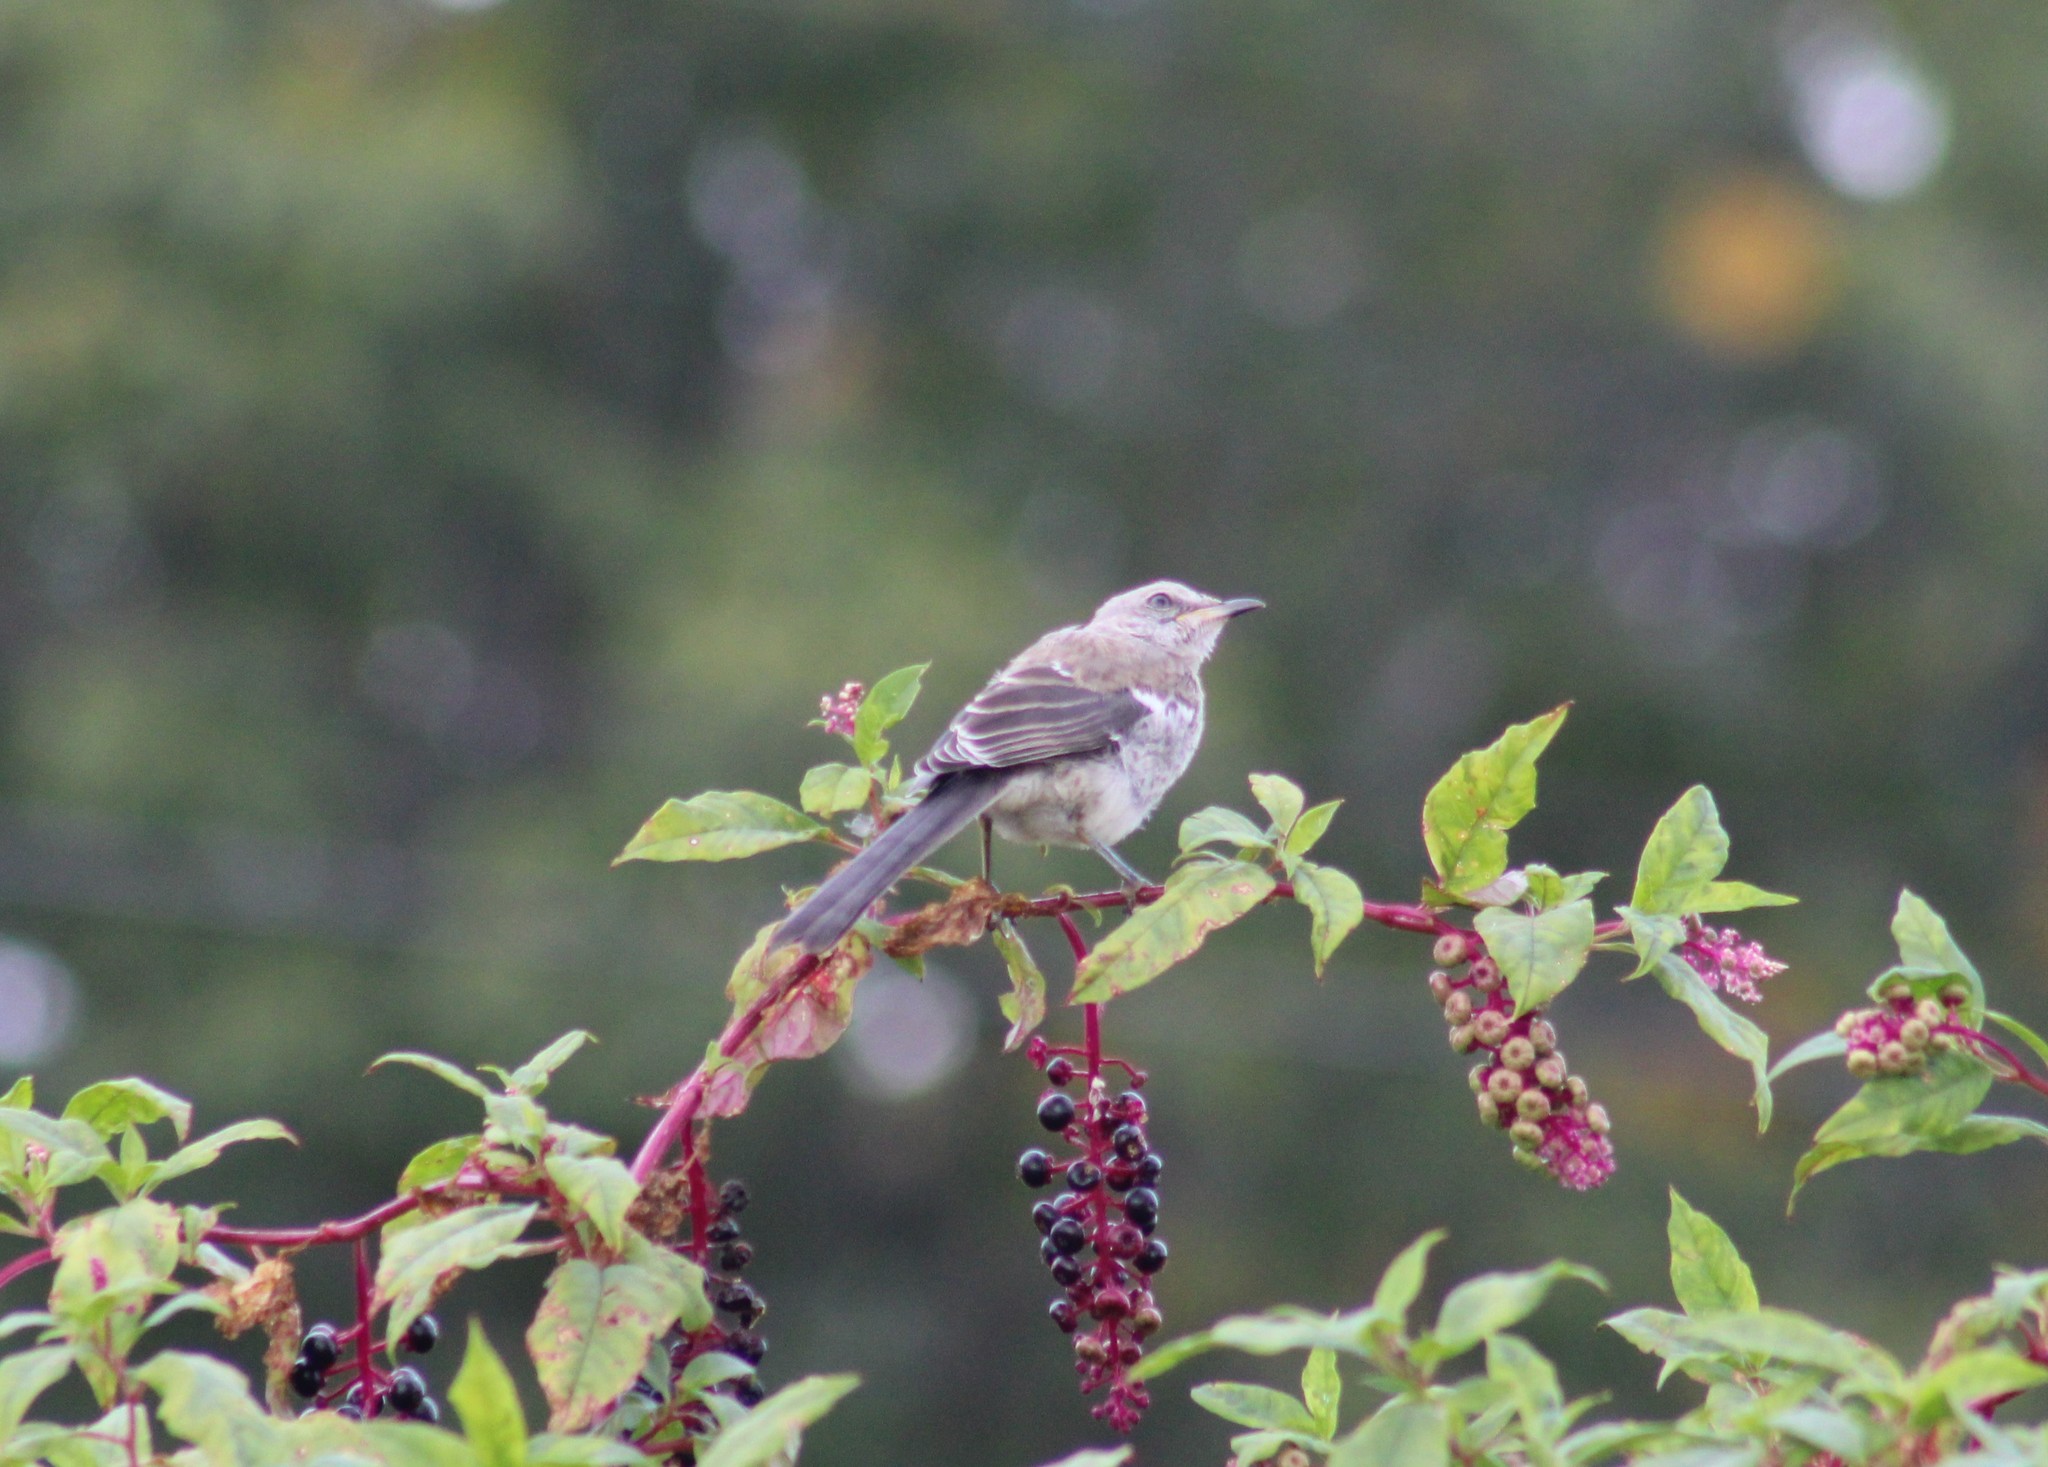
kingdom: Animalia
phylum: Chordata
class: Aves
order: Passeriformes
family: Mimidae
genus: Mimus
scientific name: Mimus polyglottos
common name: Northern mockingbird
